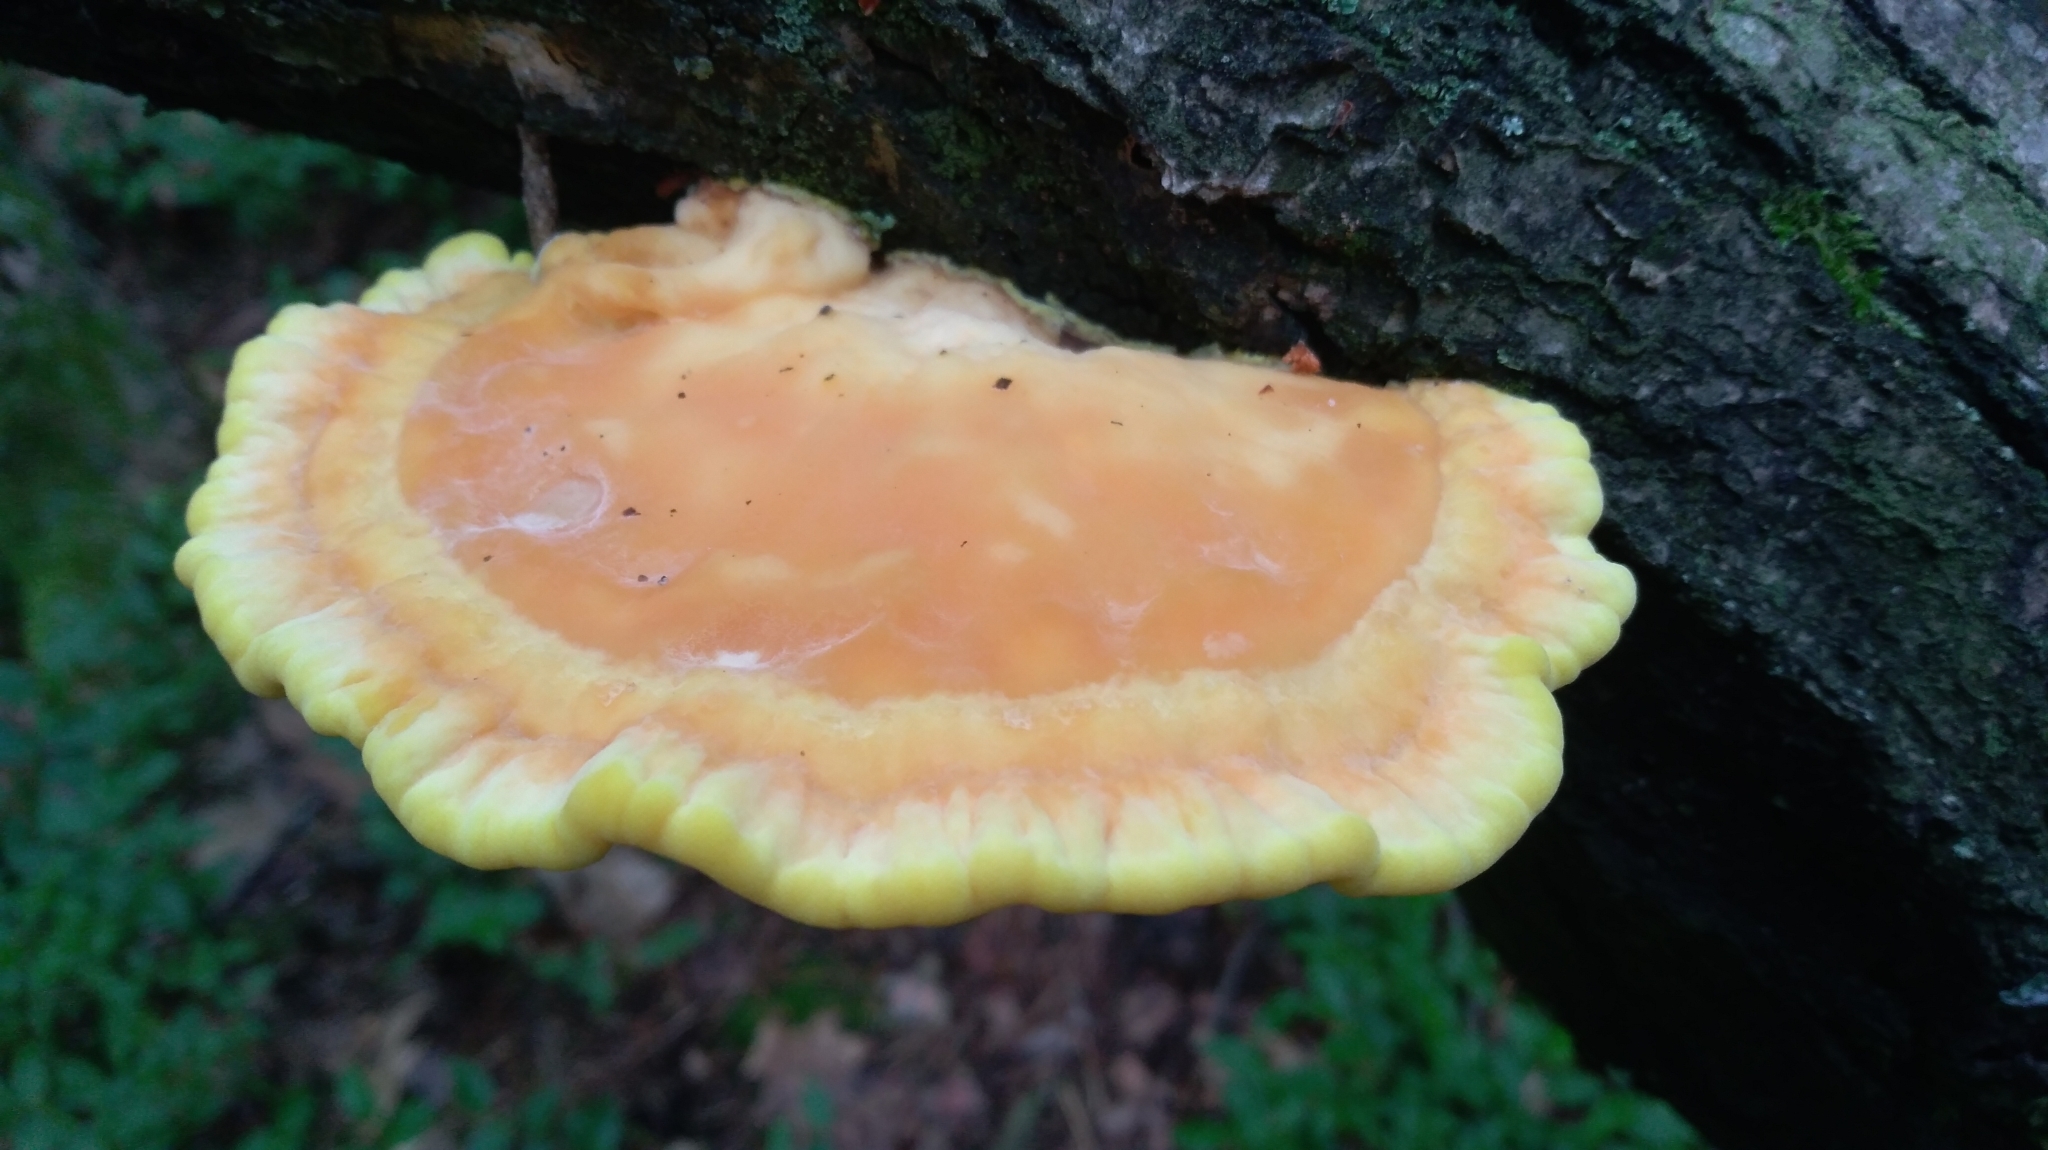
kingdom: Fungi
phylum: Basidiomycota
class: Agaricomycetes
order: Polyporales
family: Laetiporaceae
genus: Laetiporus
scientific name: Laetiporus sulphureus
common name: Chicken of the woods
